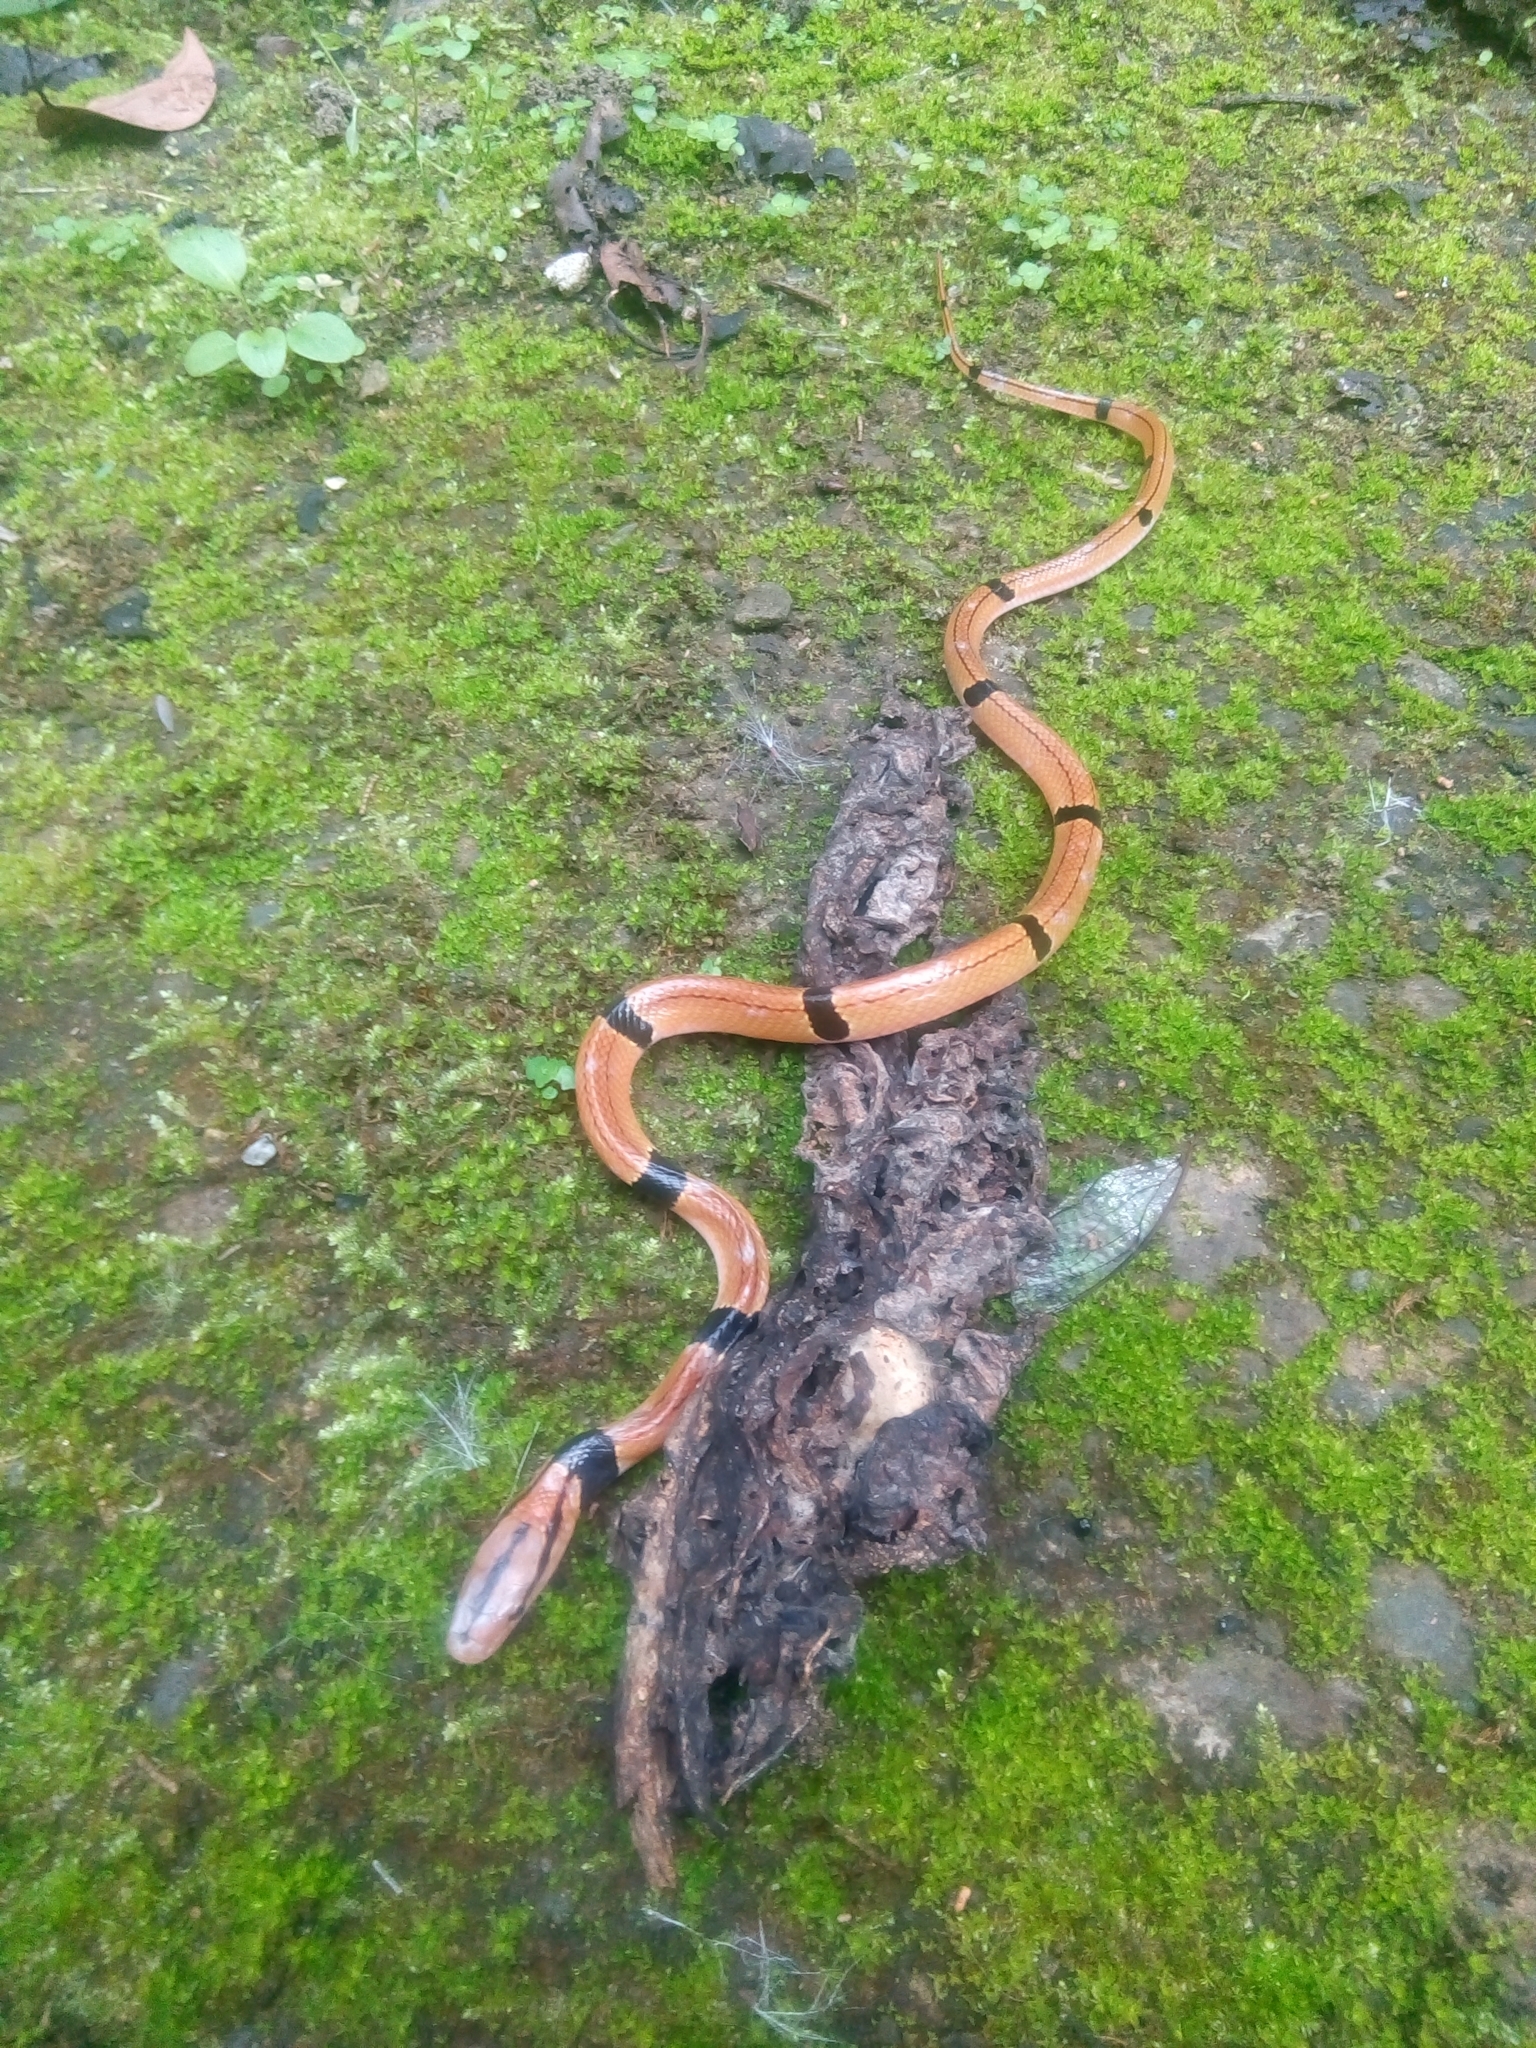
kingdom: Animalia
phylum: Chordata
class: Squamata
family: Colubridae
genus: Oreocryptophis
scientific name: Oreocryptophis porphyraceus
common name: Black-banded trinket snake
